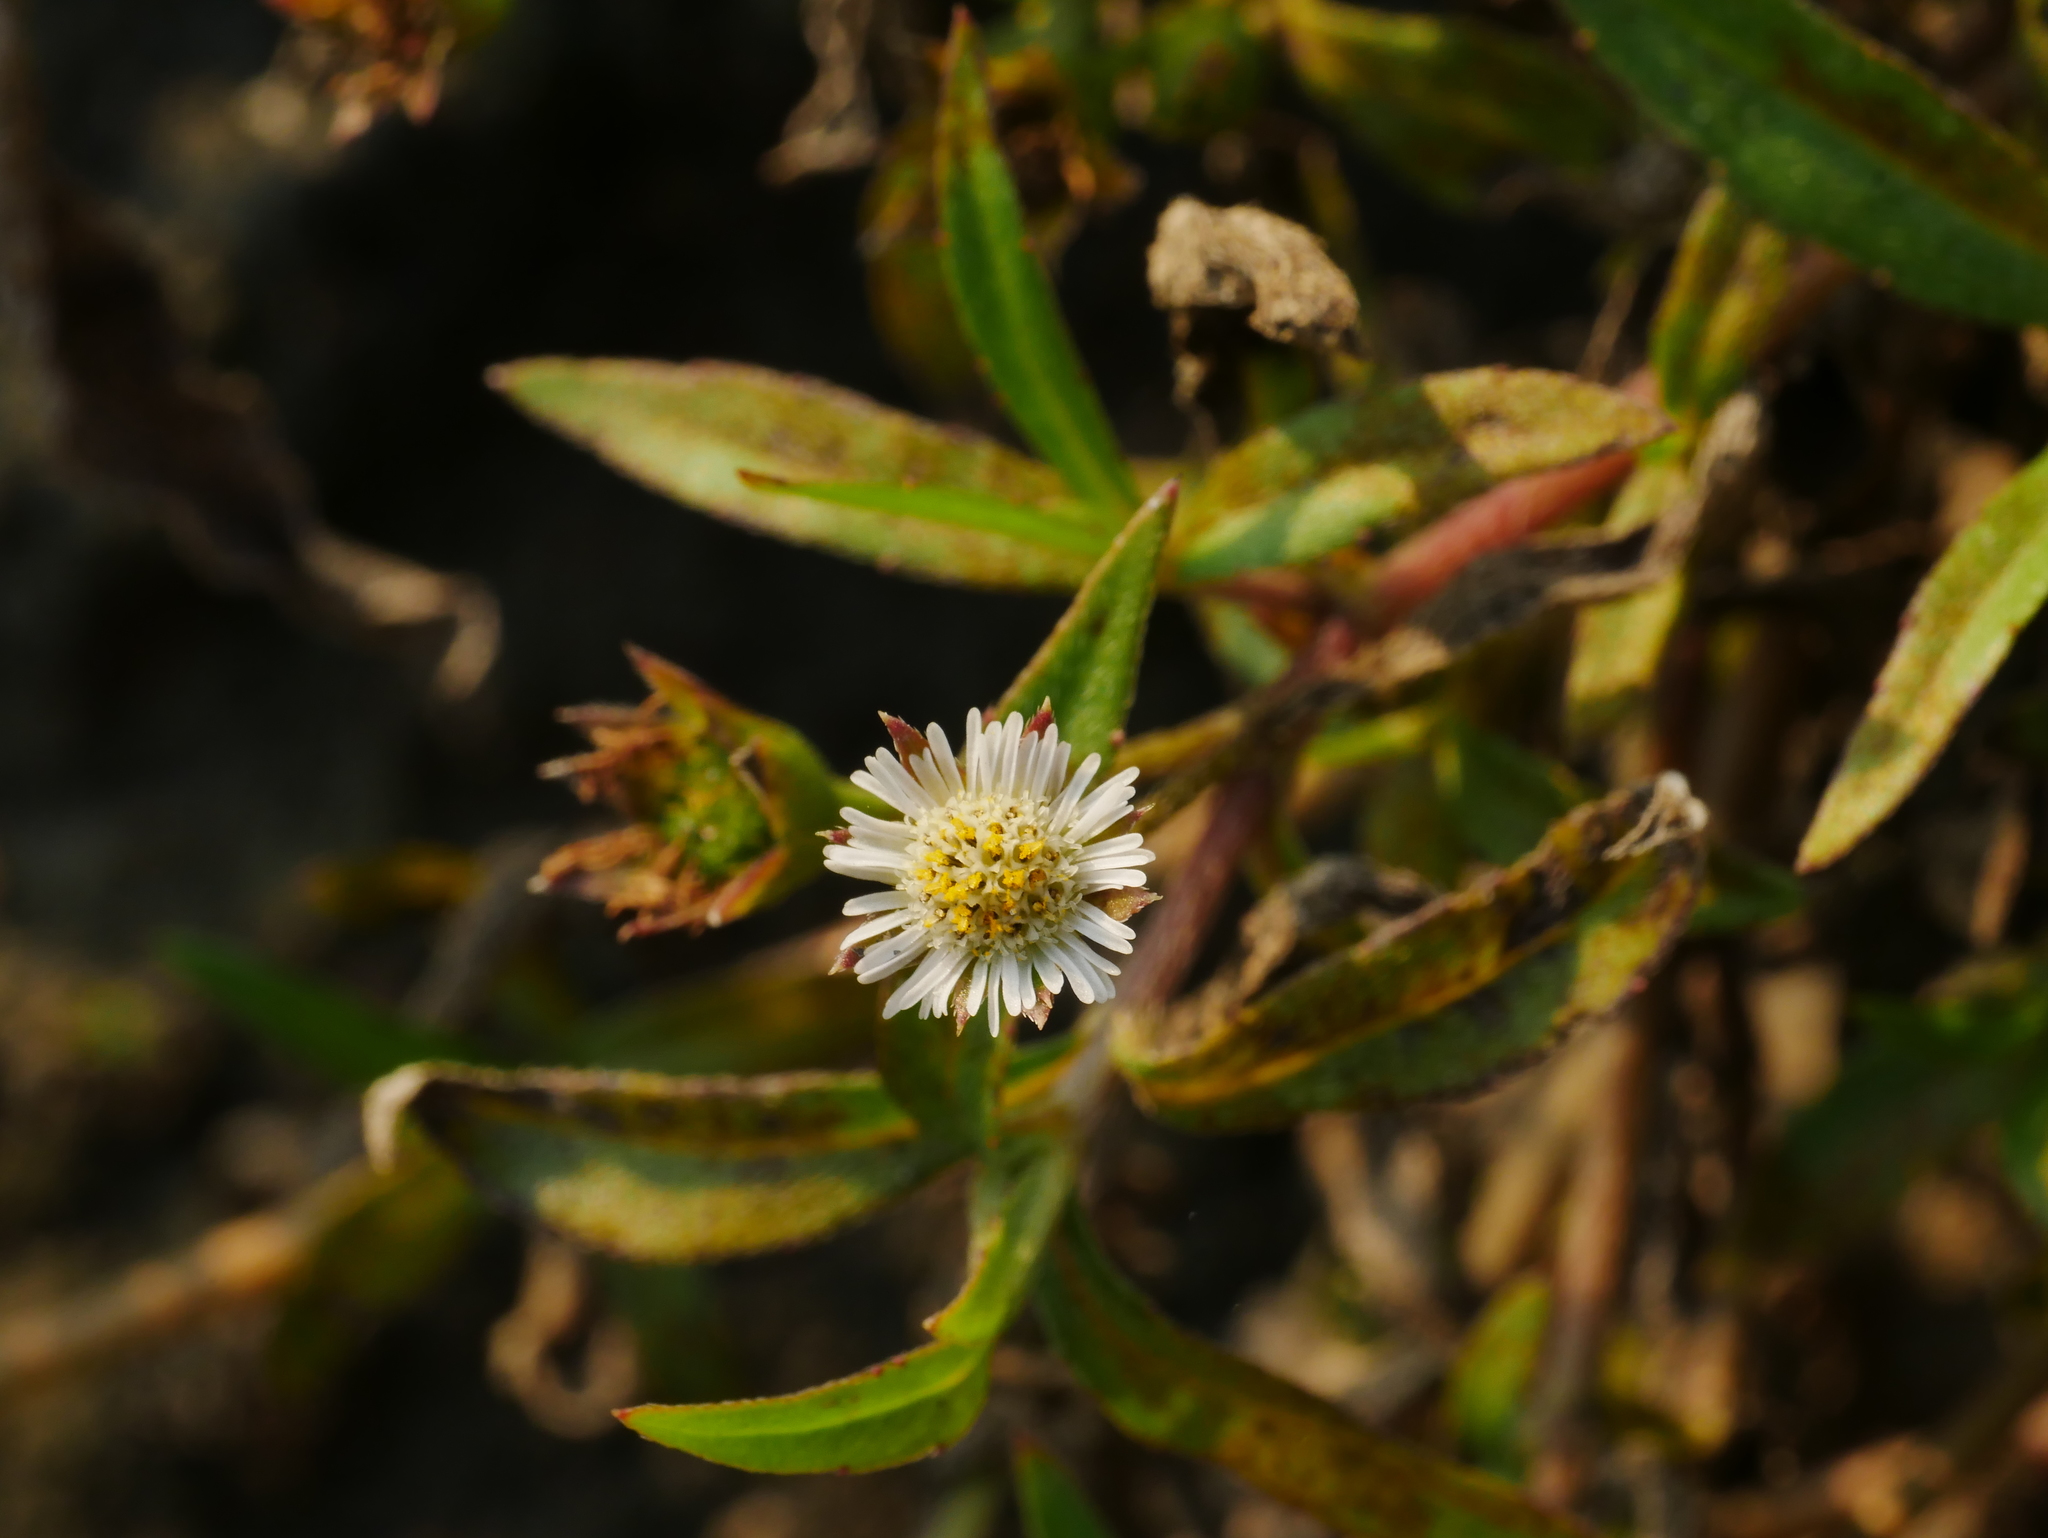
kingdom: Plantae
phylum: Tracheophyta
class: Magnoliopsida
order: Asterales
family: Asteraceae
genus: Eclipta
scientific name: Eclipta angustata
